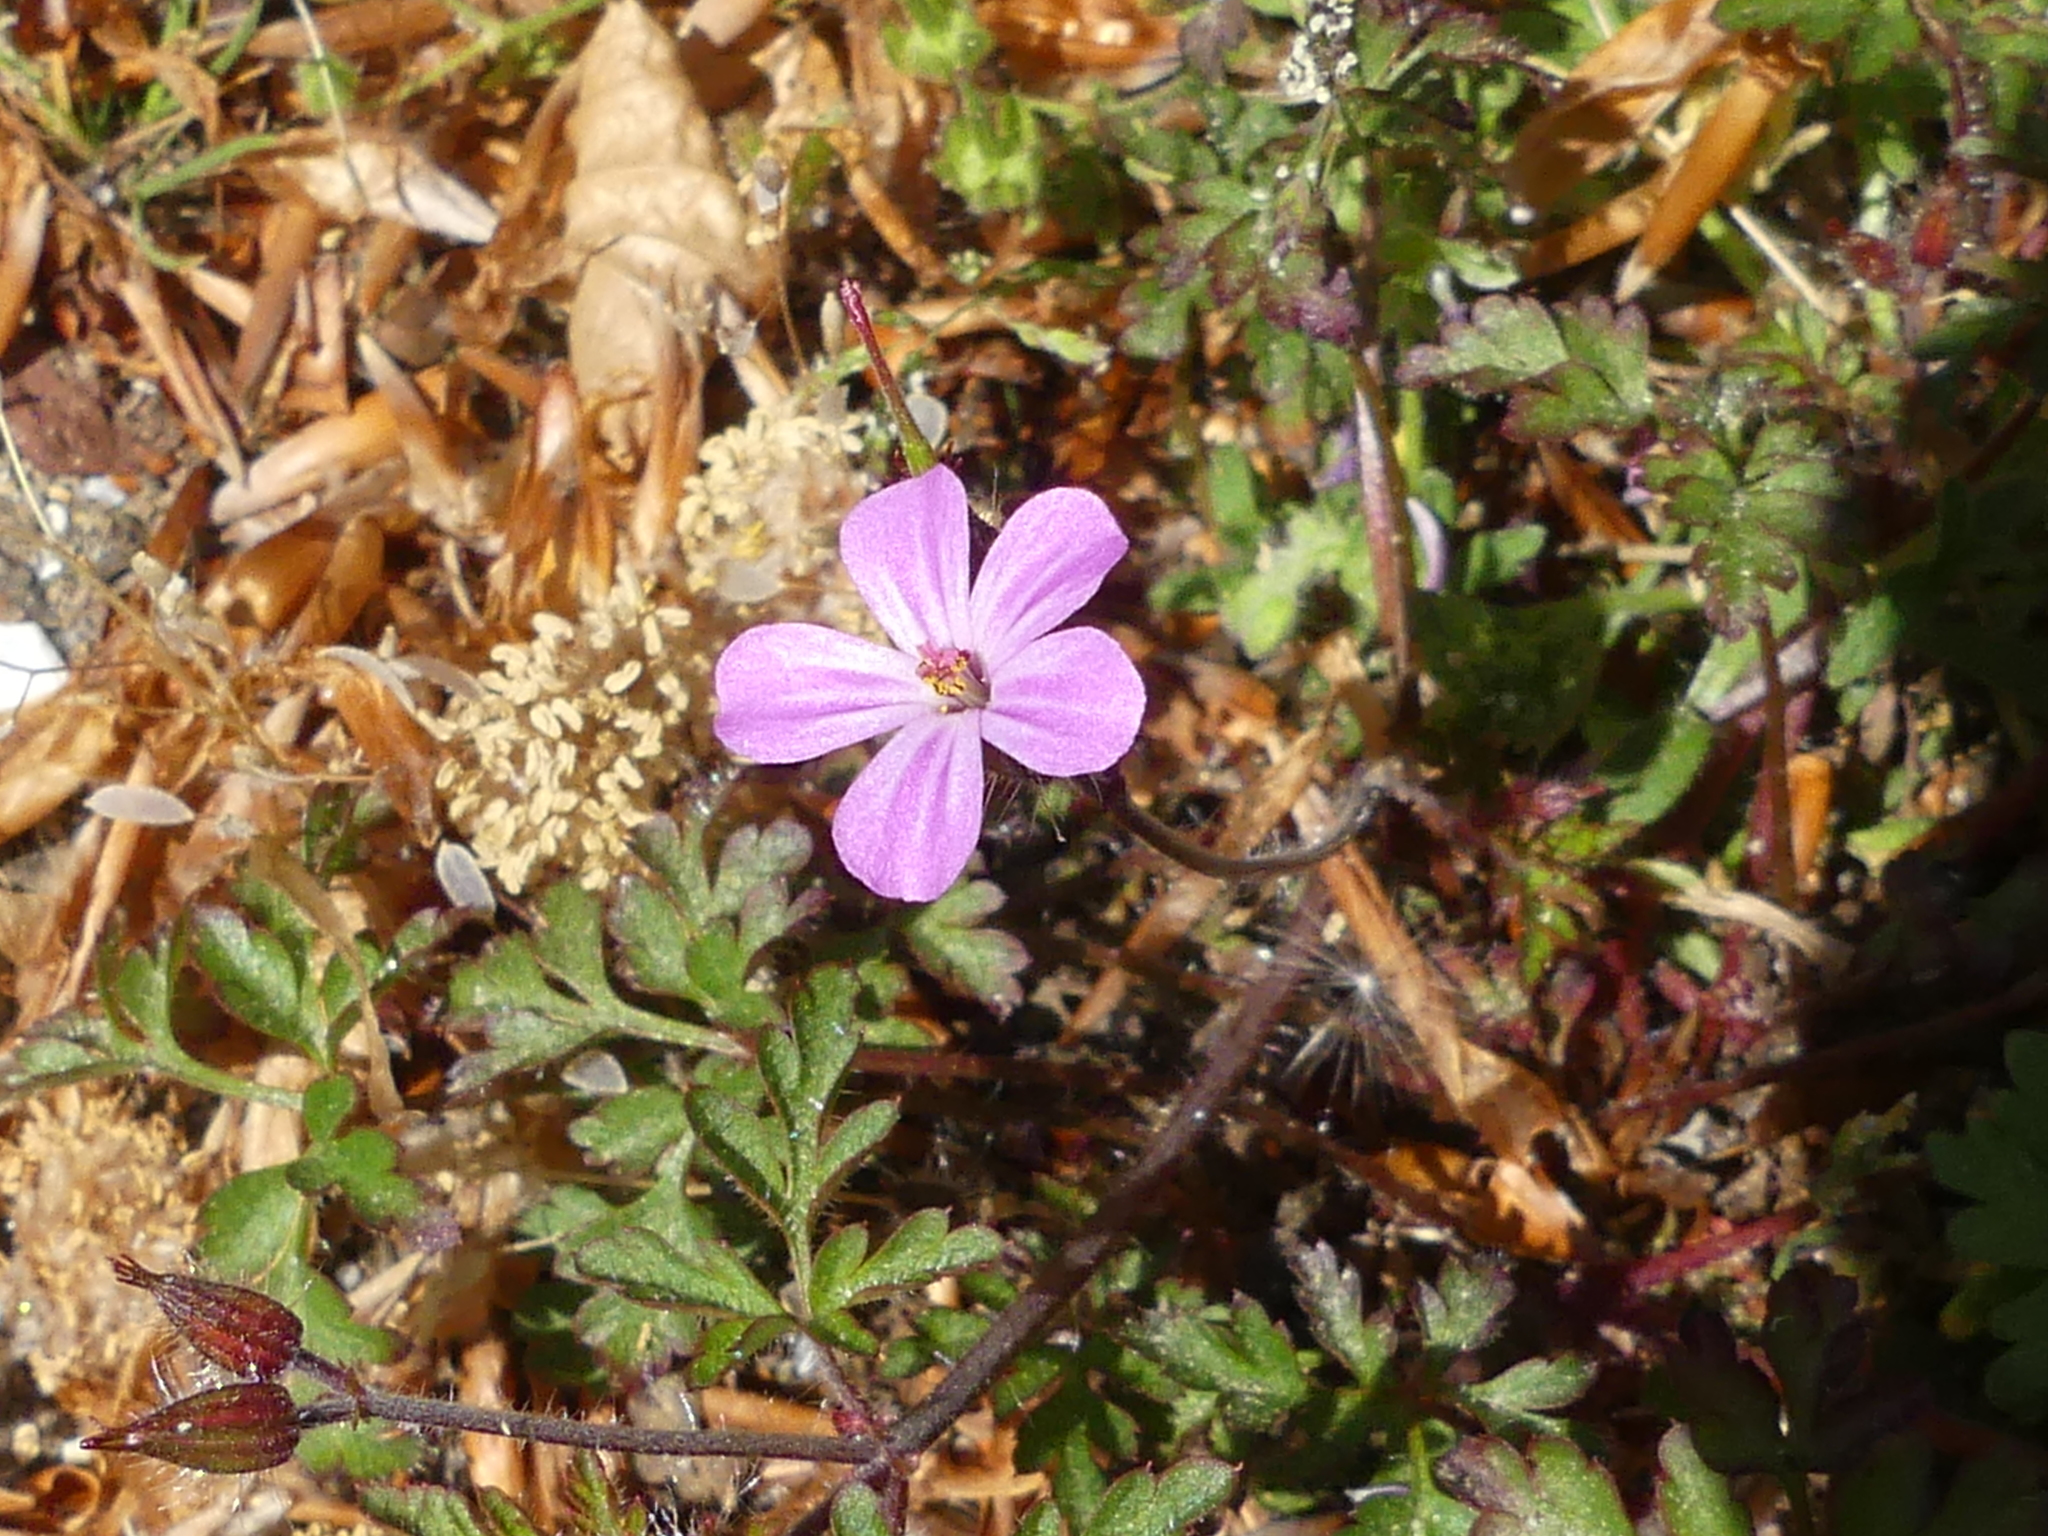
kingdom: Plantae
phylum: Tracheophyta
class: Magnoliopsida
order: Geraniales
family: Geraniaceae
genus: Geranium
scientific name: Geranium robertianum
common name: Herb-robert
